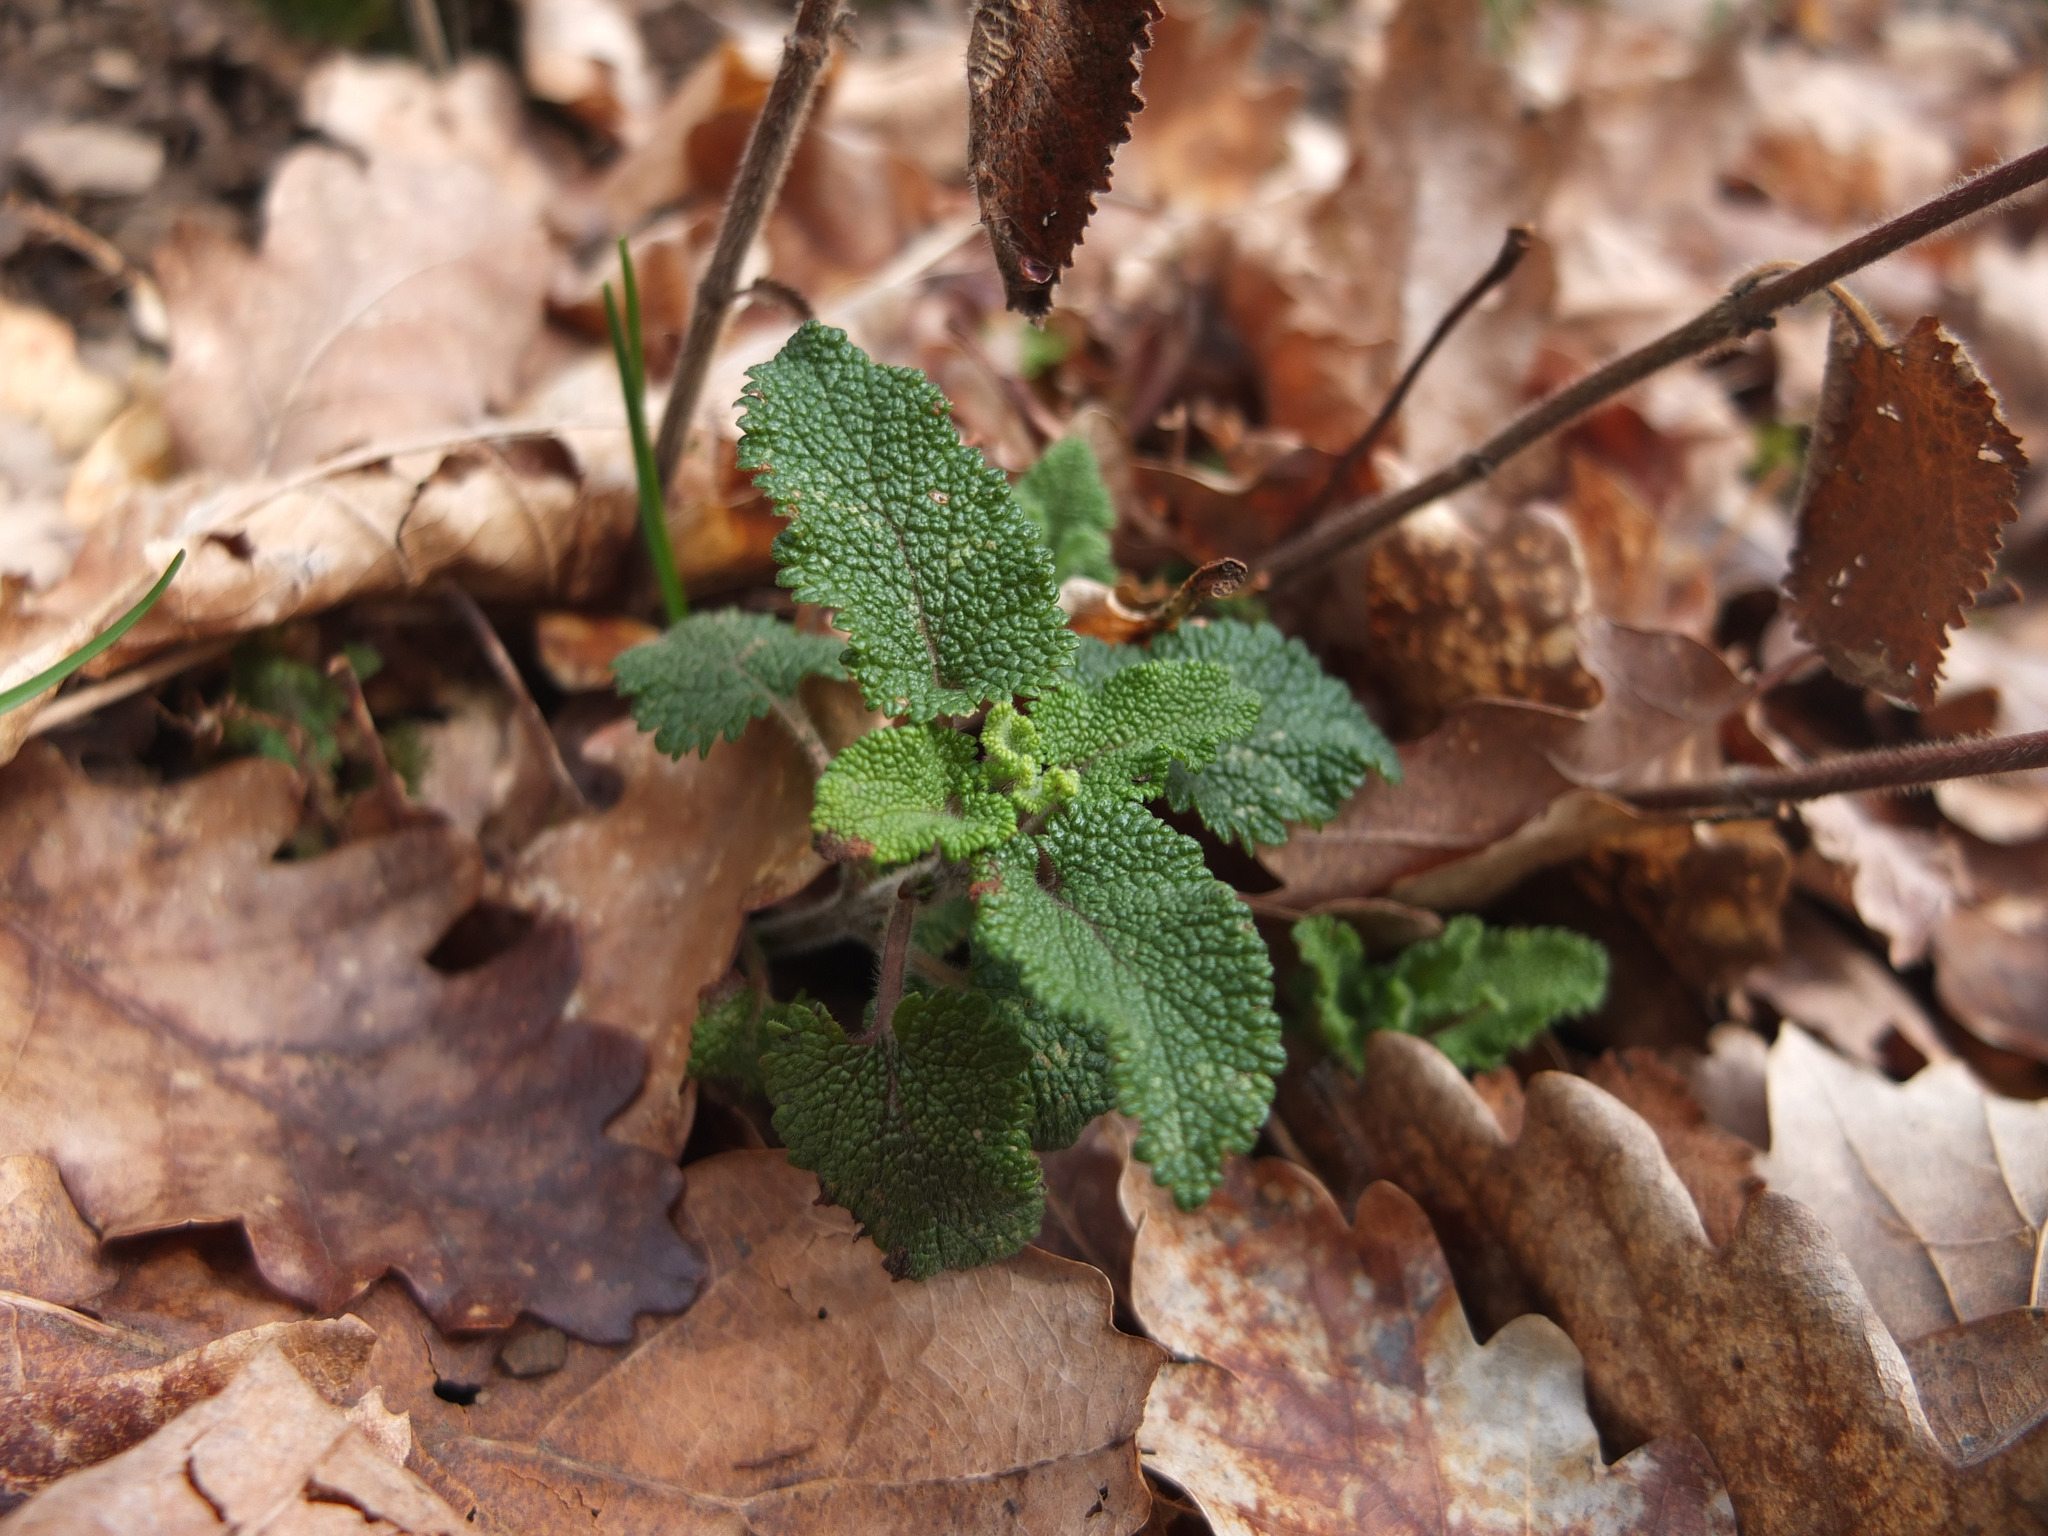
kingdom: Plantae
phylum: Tracheophyta
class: Magnoliopsida
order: Lamiales
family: Lamiaceae
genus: Teucrium
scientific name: Teucrium scorodonia
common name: Woodland germander
